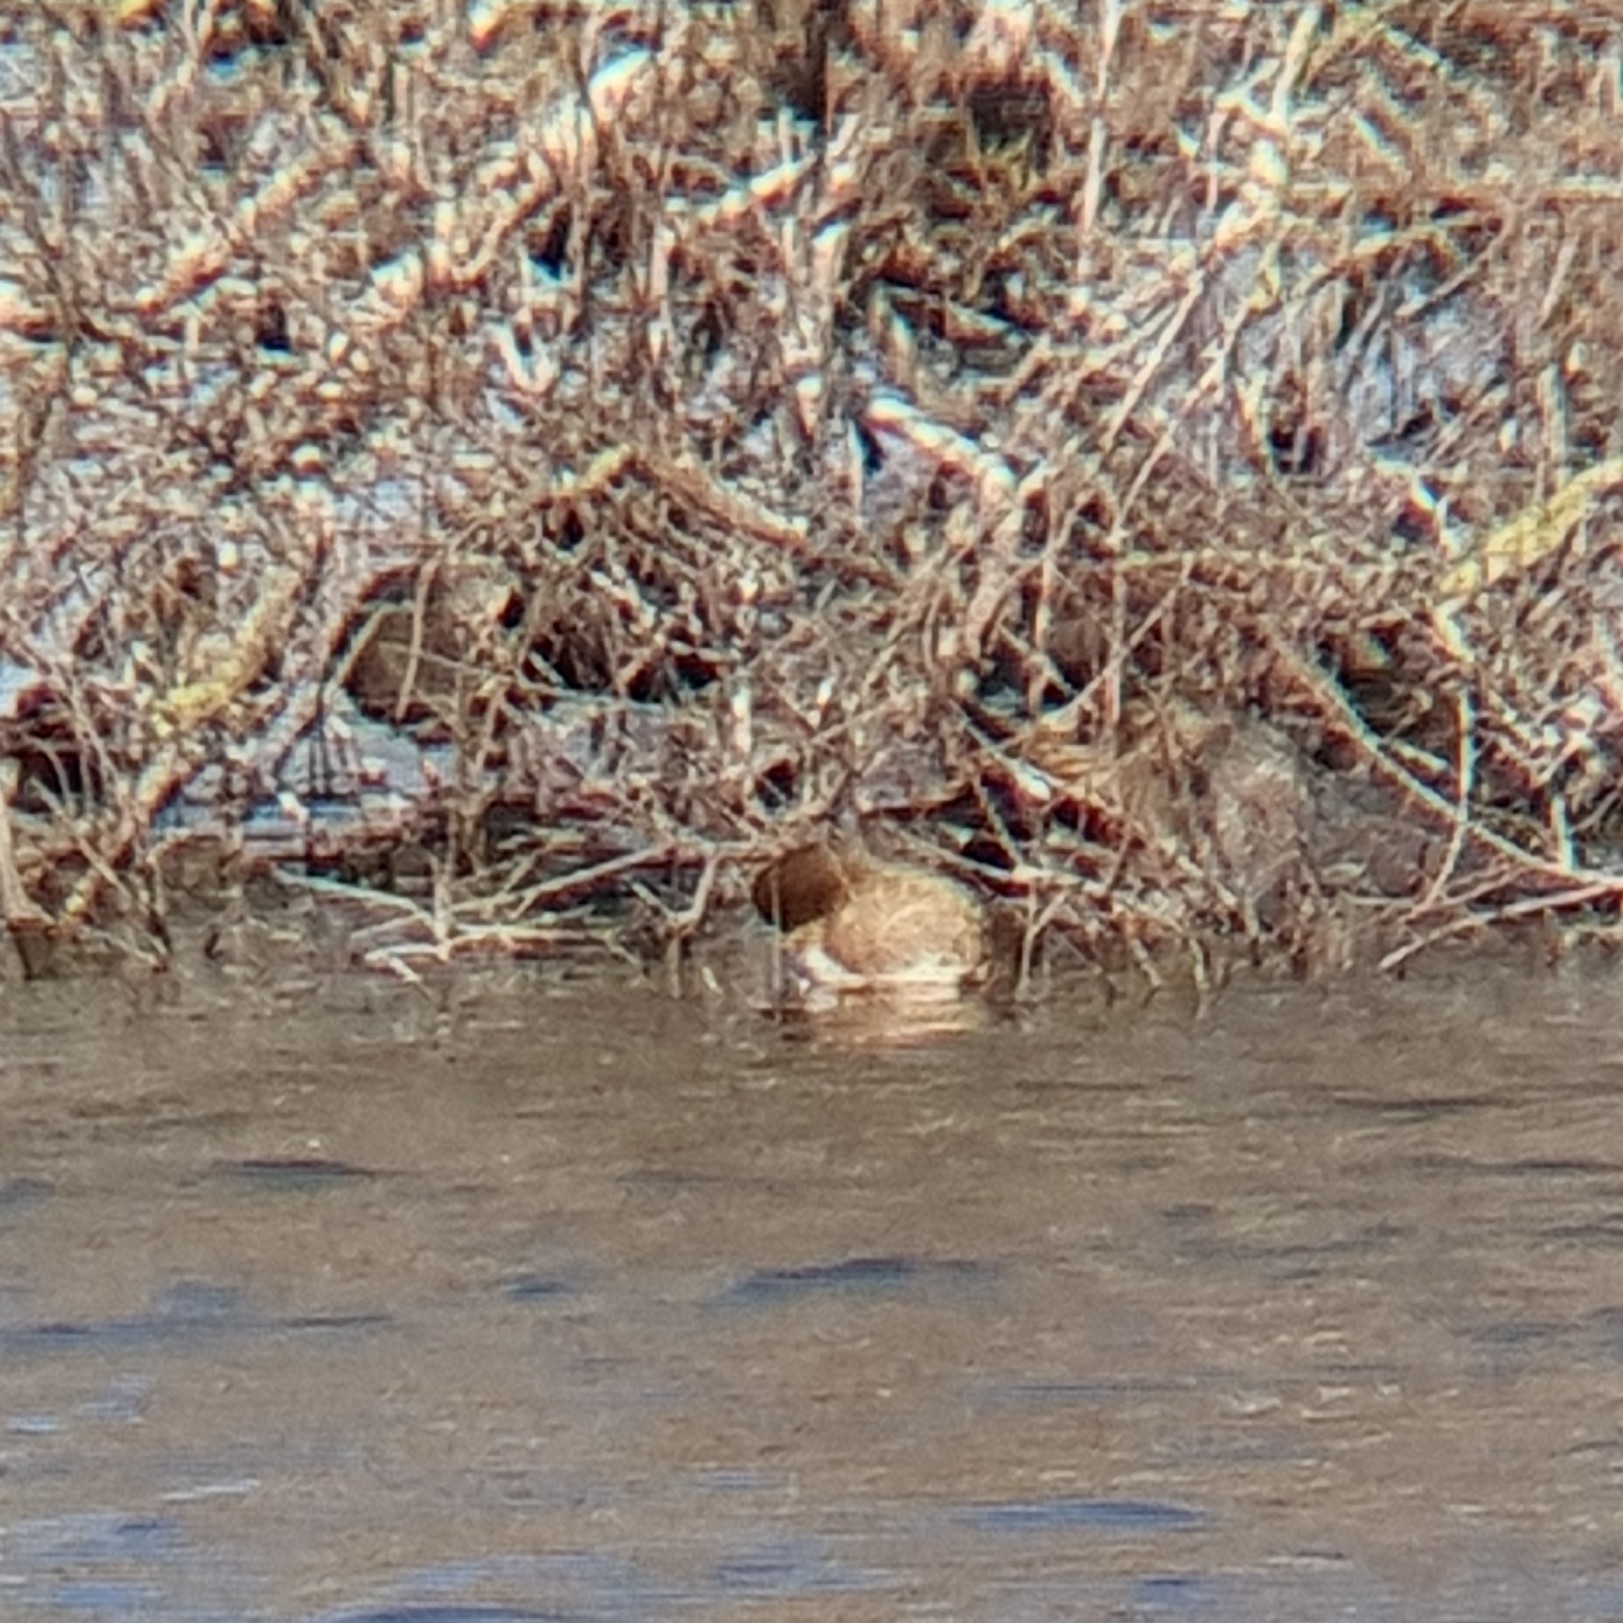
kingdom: Animalia
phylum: Chordata
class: Aves
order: Anseriformes
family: Anatidae
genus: Mareca
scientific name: Mareca penelope
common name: Eurasian wigeon
